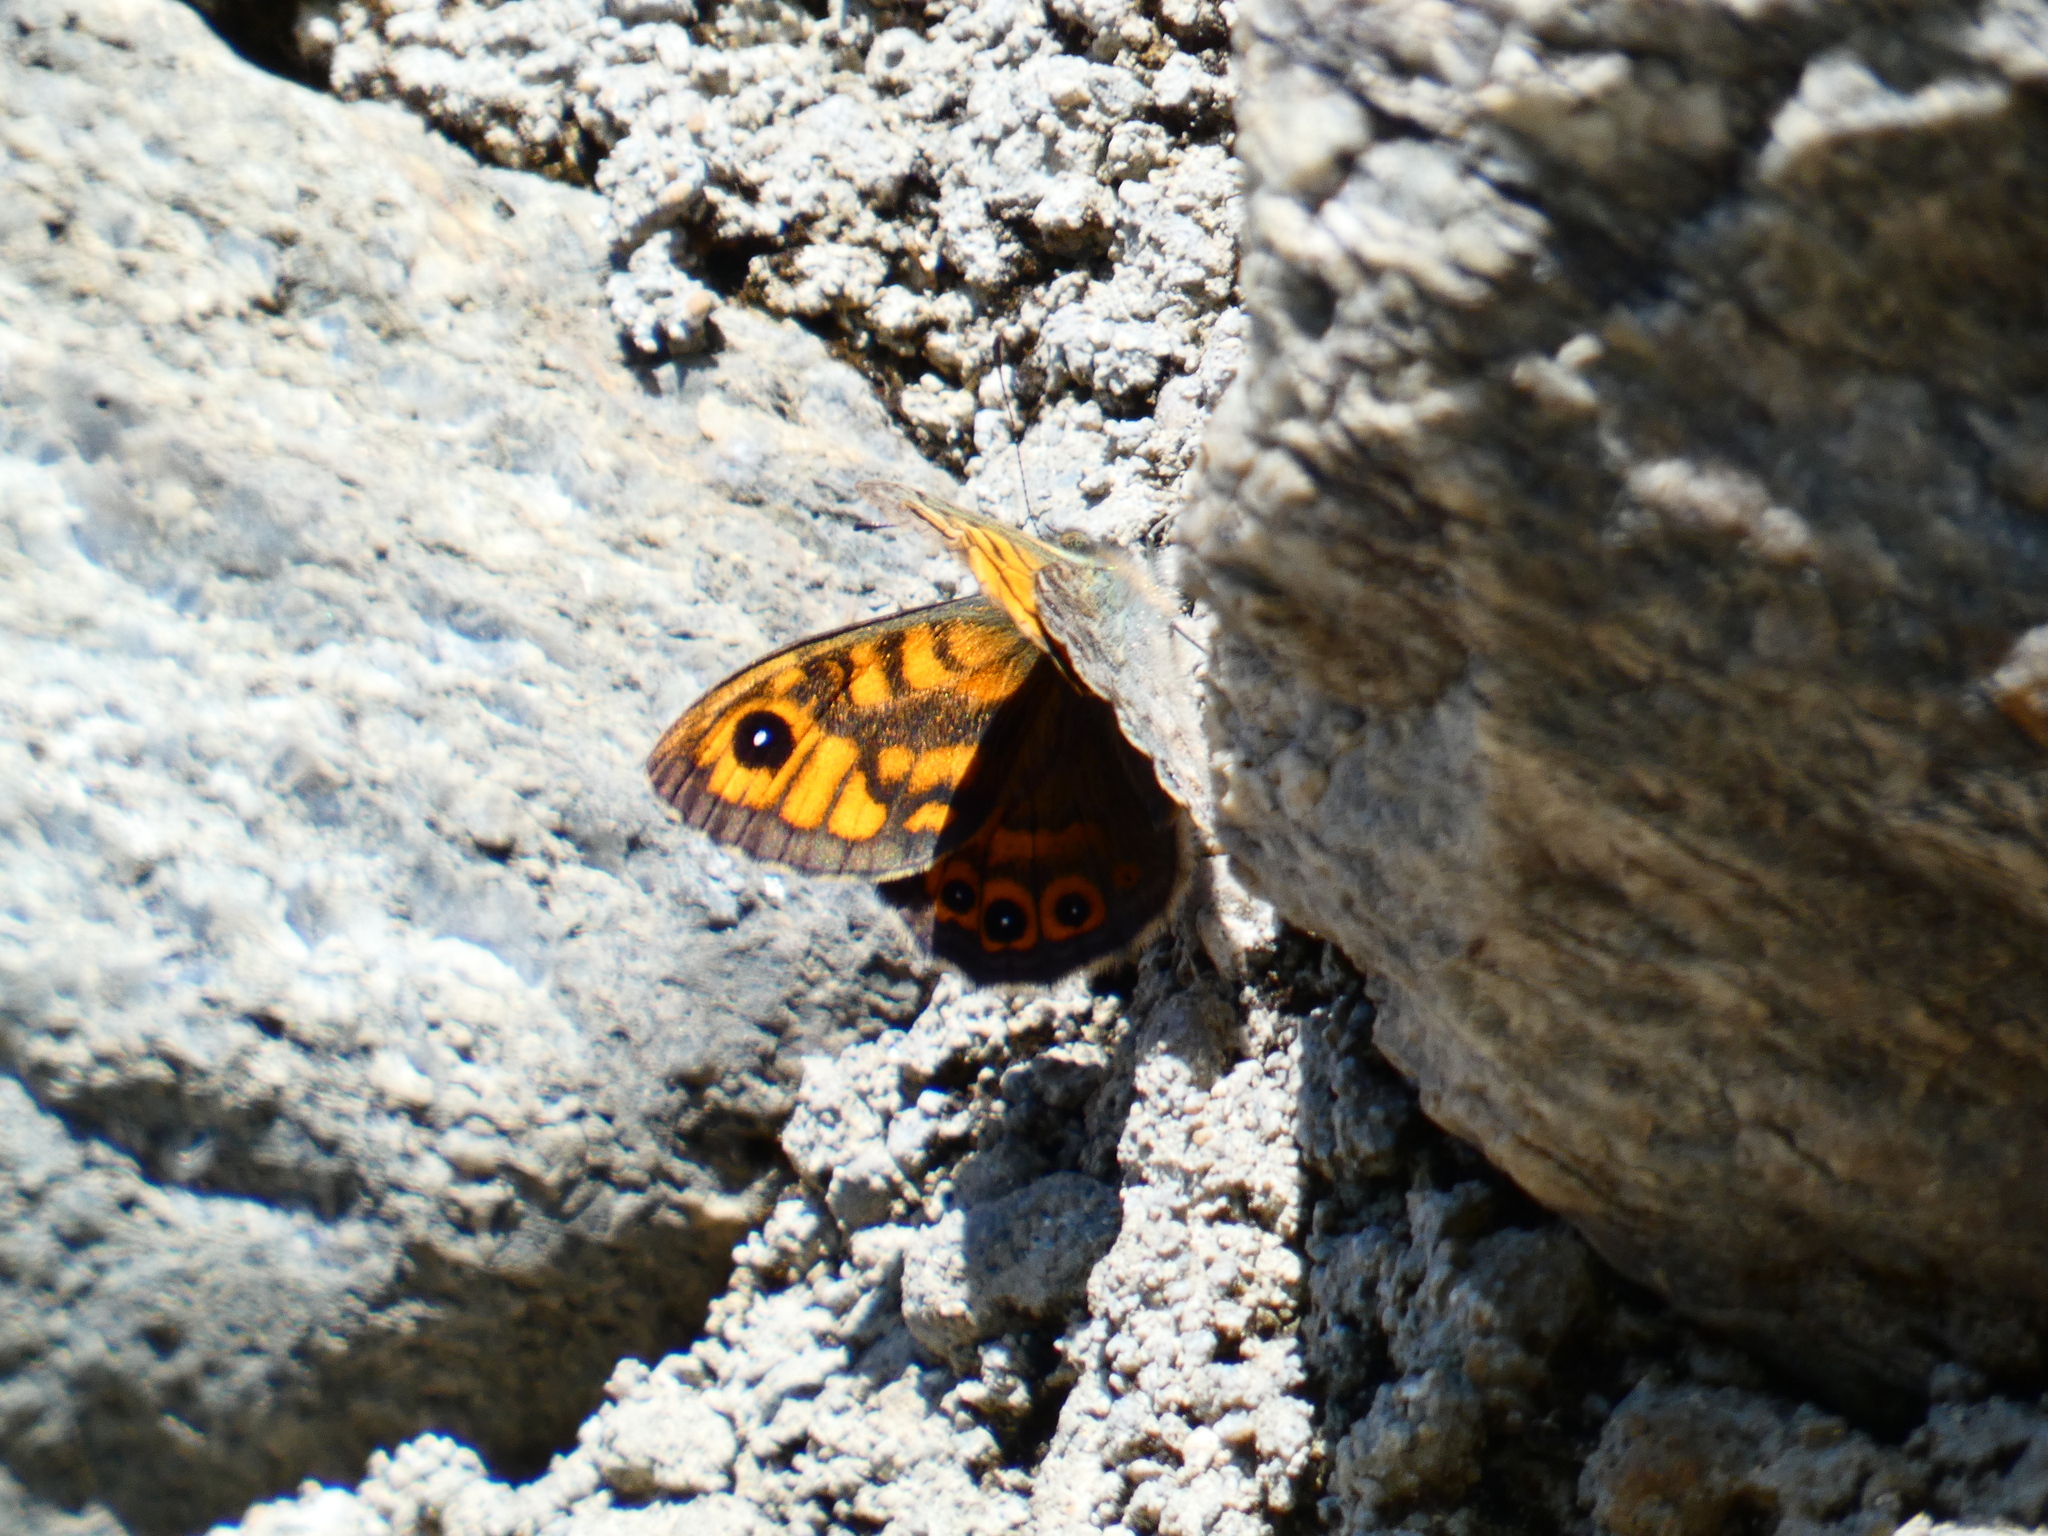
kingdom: Animalia
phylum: Arthropoda
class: Insecta
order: Lepidoptera
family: Nymphalidae
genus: Pararge
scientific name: Pararge Lasiommata megera
